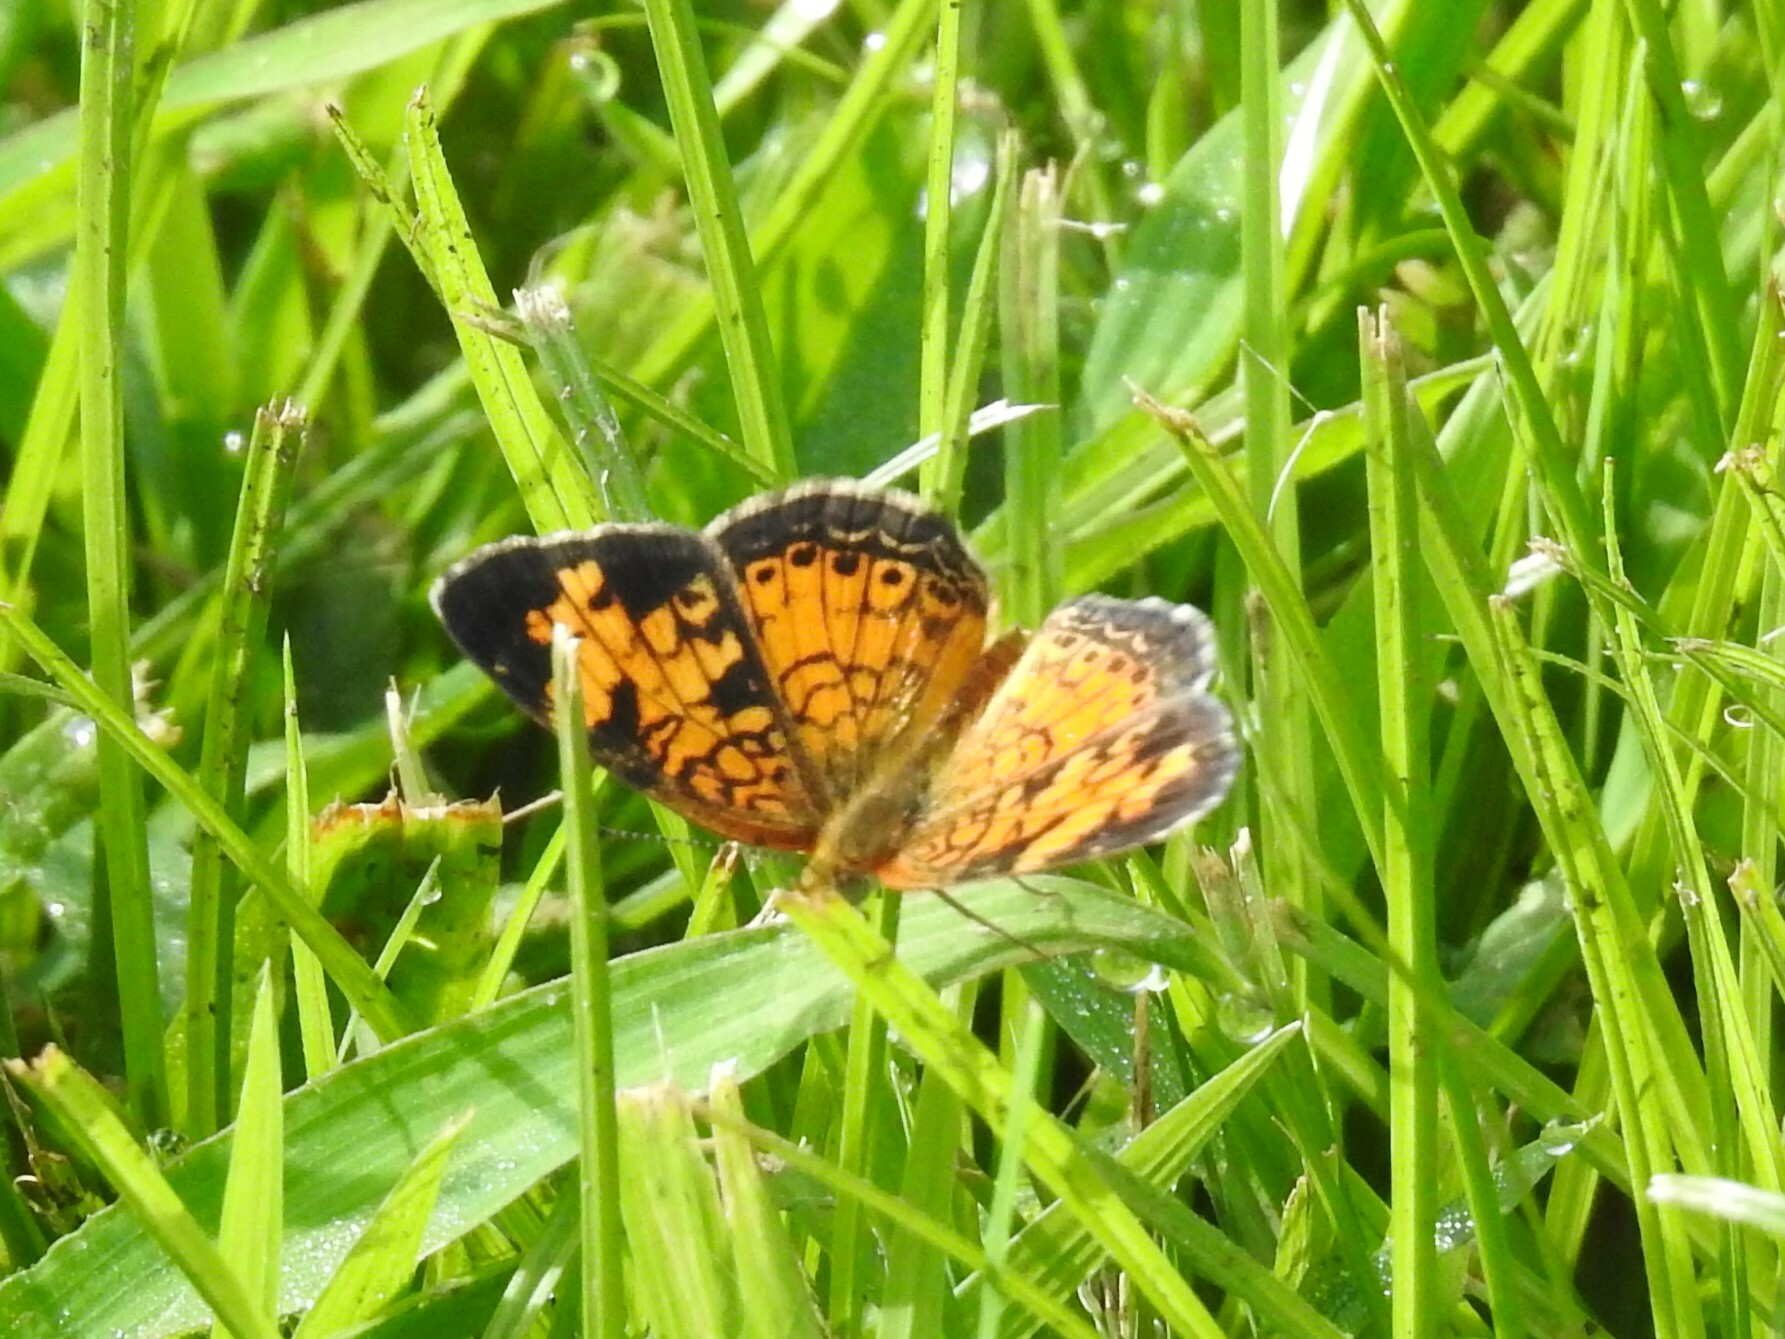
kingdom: Animalia
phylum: Arthropoda
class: Insecta
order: Lepidoptera
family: Nymphalidae
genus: Phyciodes
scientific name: Phyciodes tharos
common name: Pearl crescent
